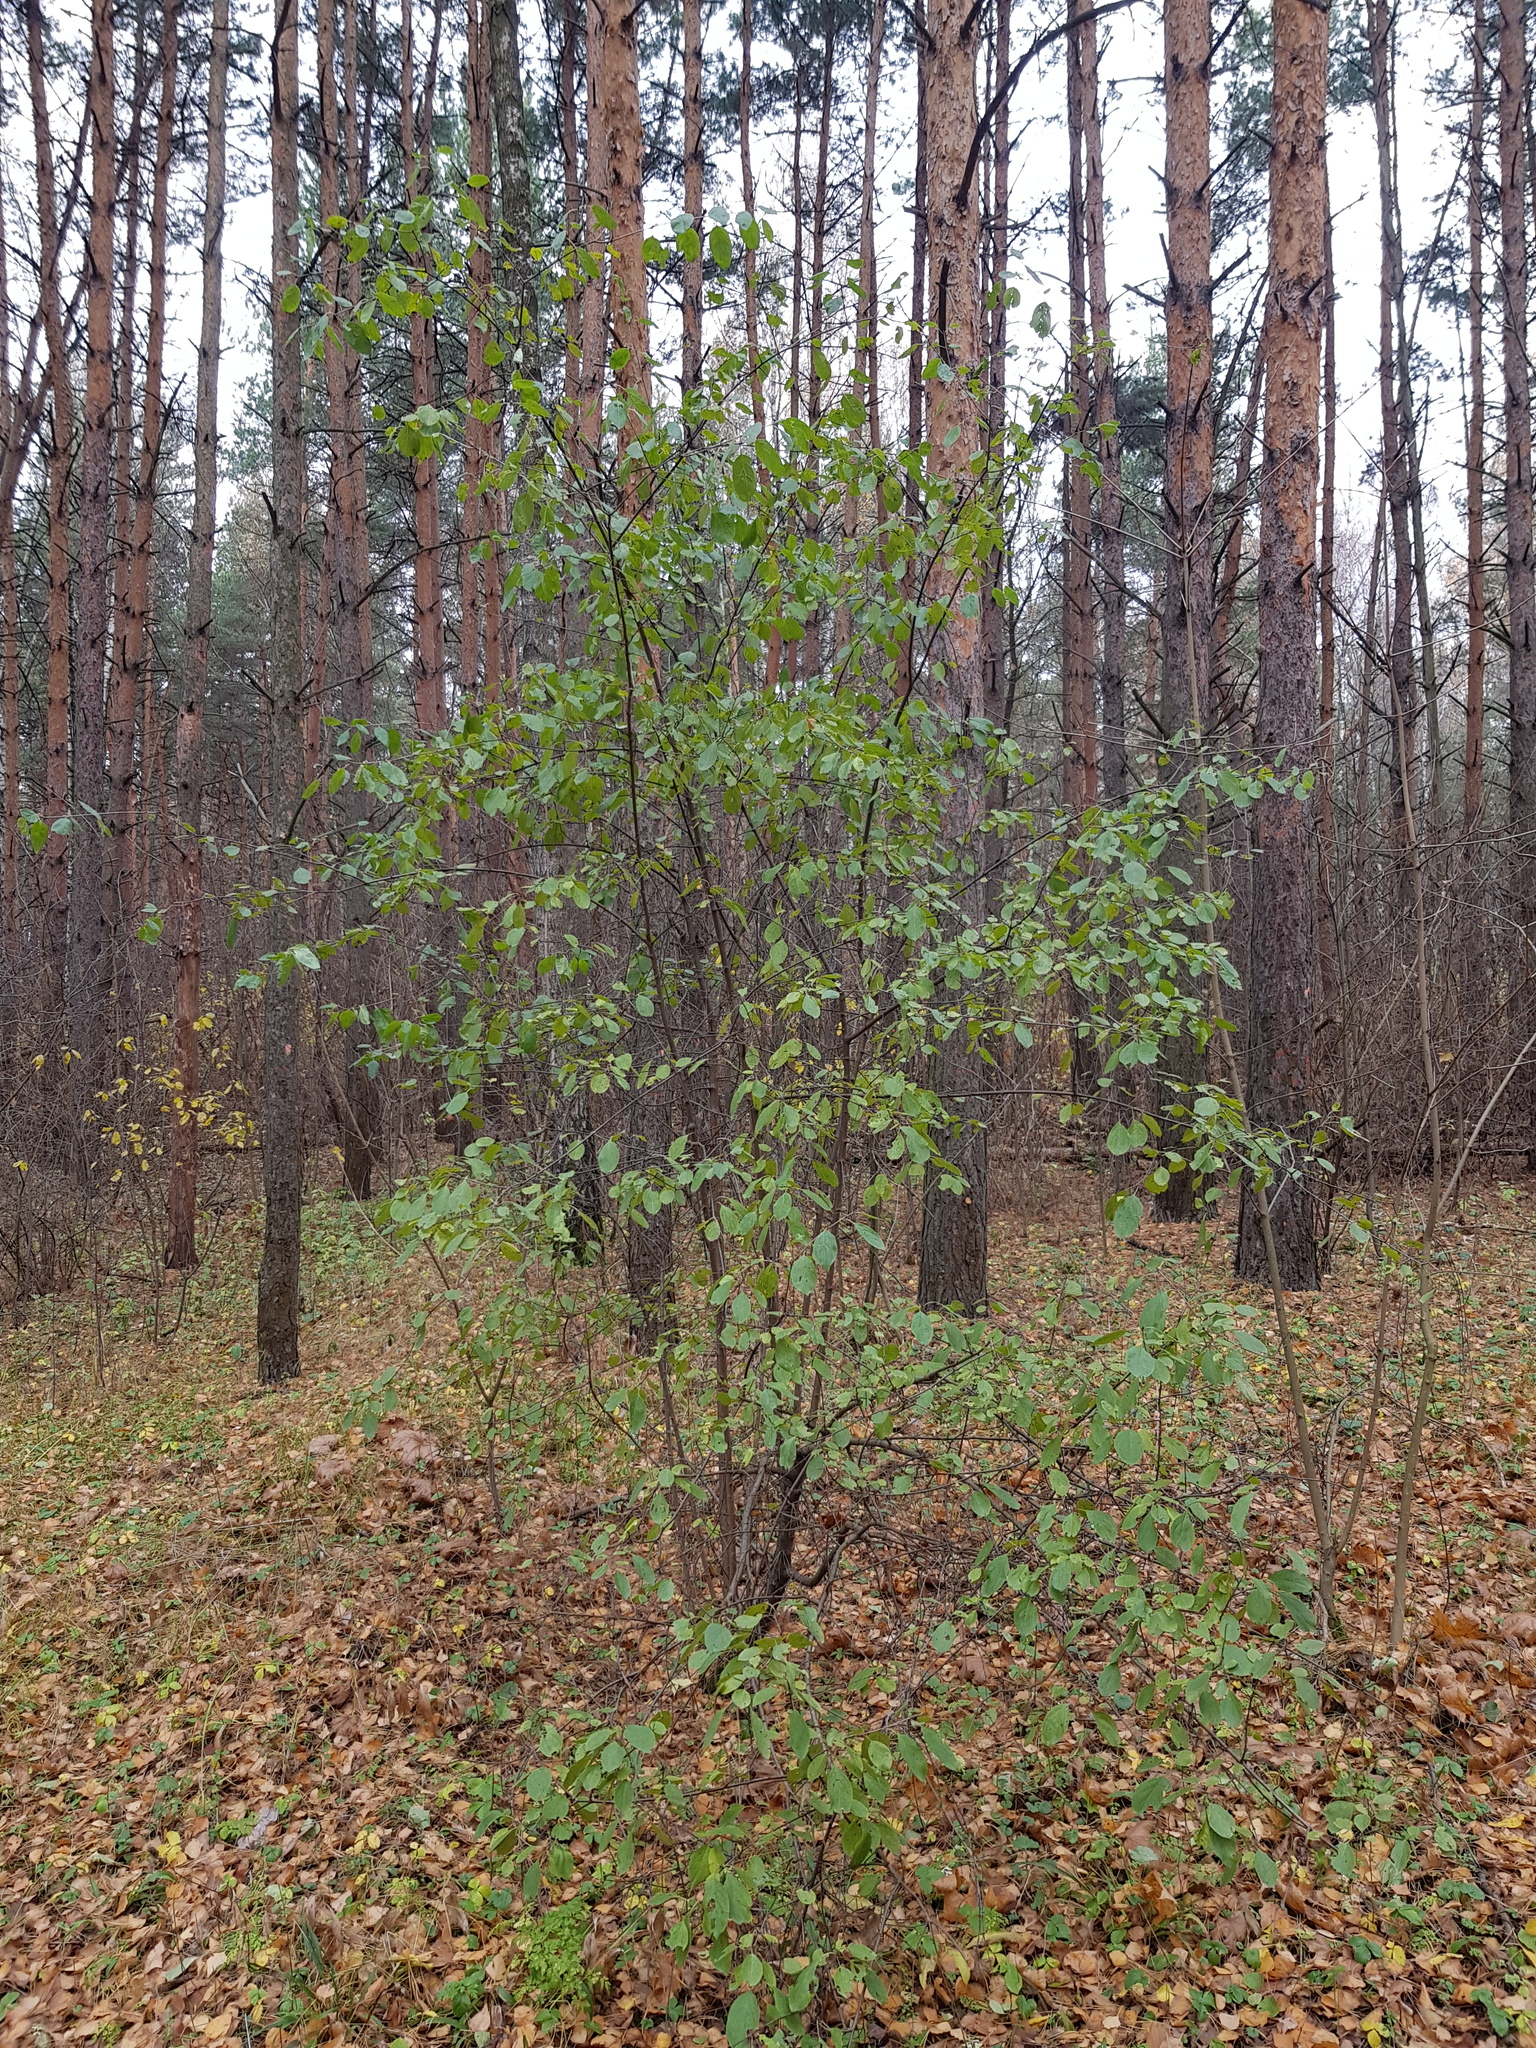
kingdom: Plantae
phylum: Tracheophyta
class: Magnoliopsida
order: Rosales
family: Rhamnaceae
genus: Rhamnus
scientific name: Rhamnus cathartica
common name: Common buckthorn
